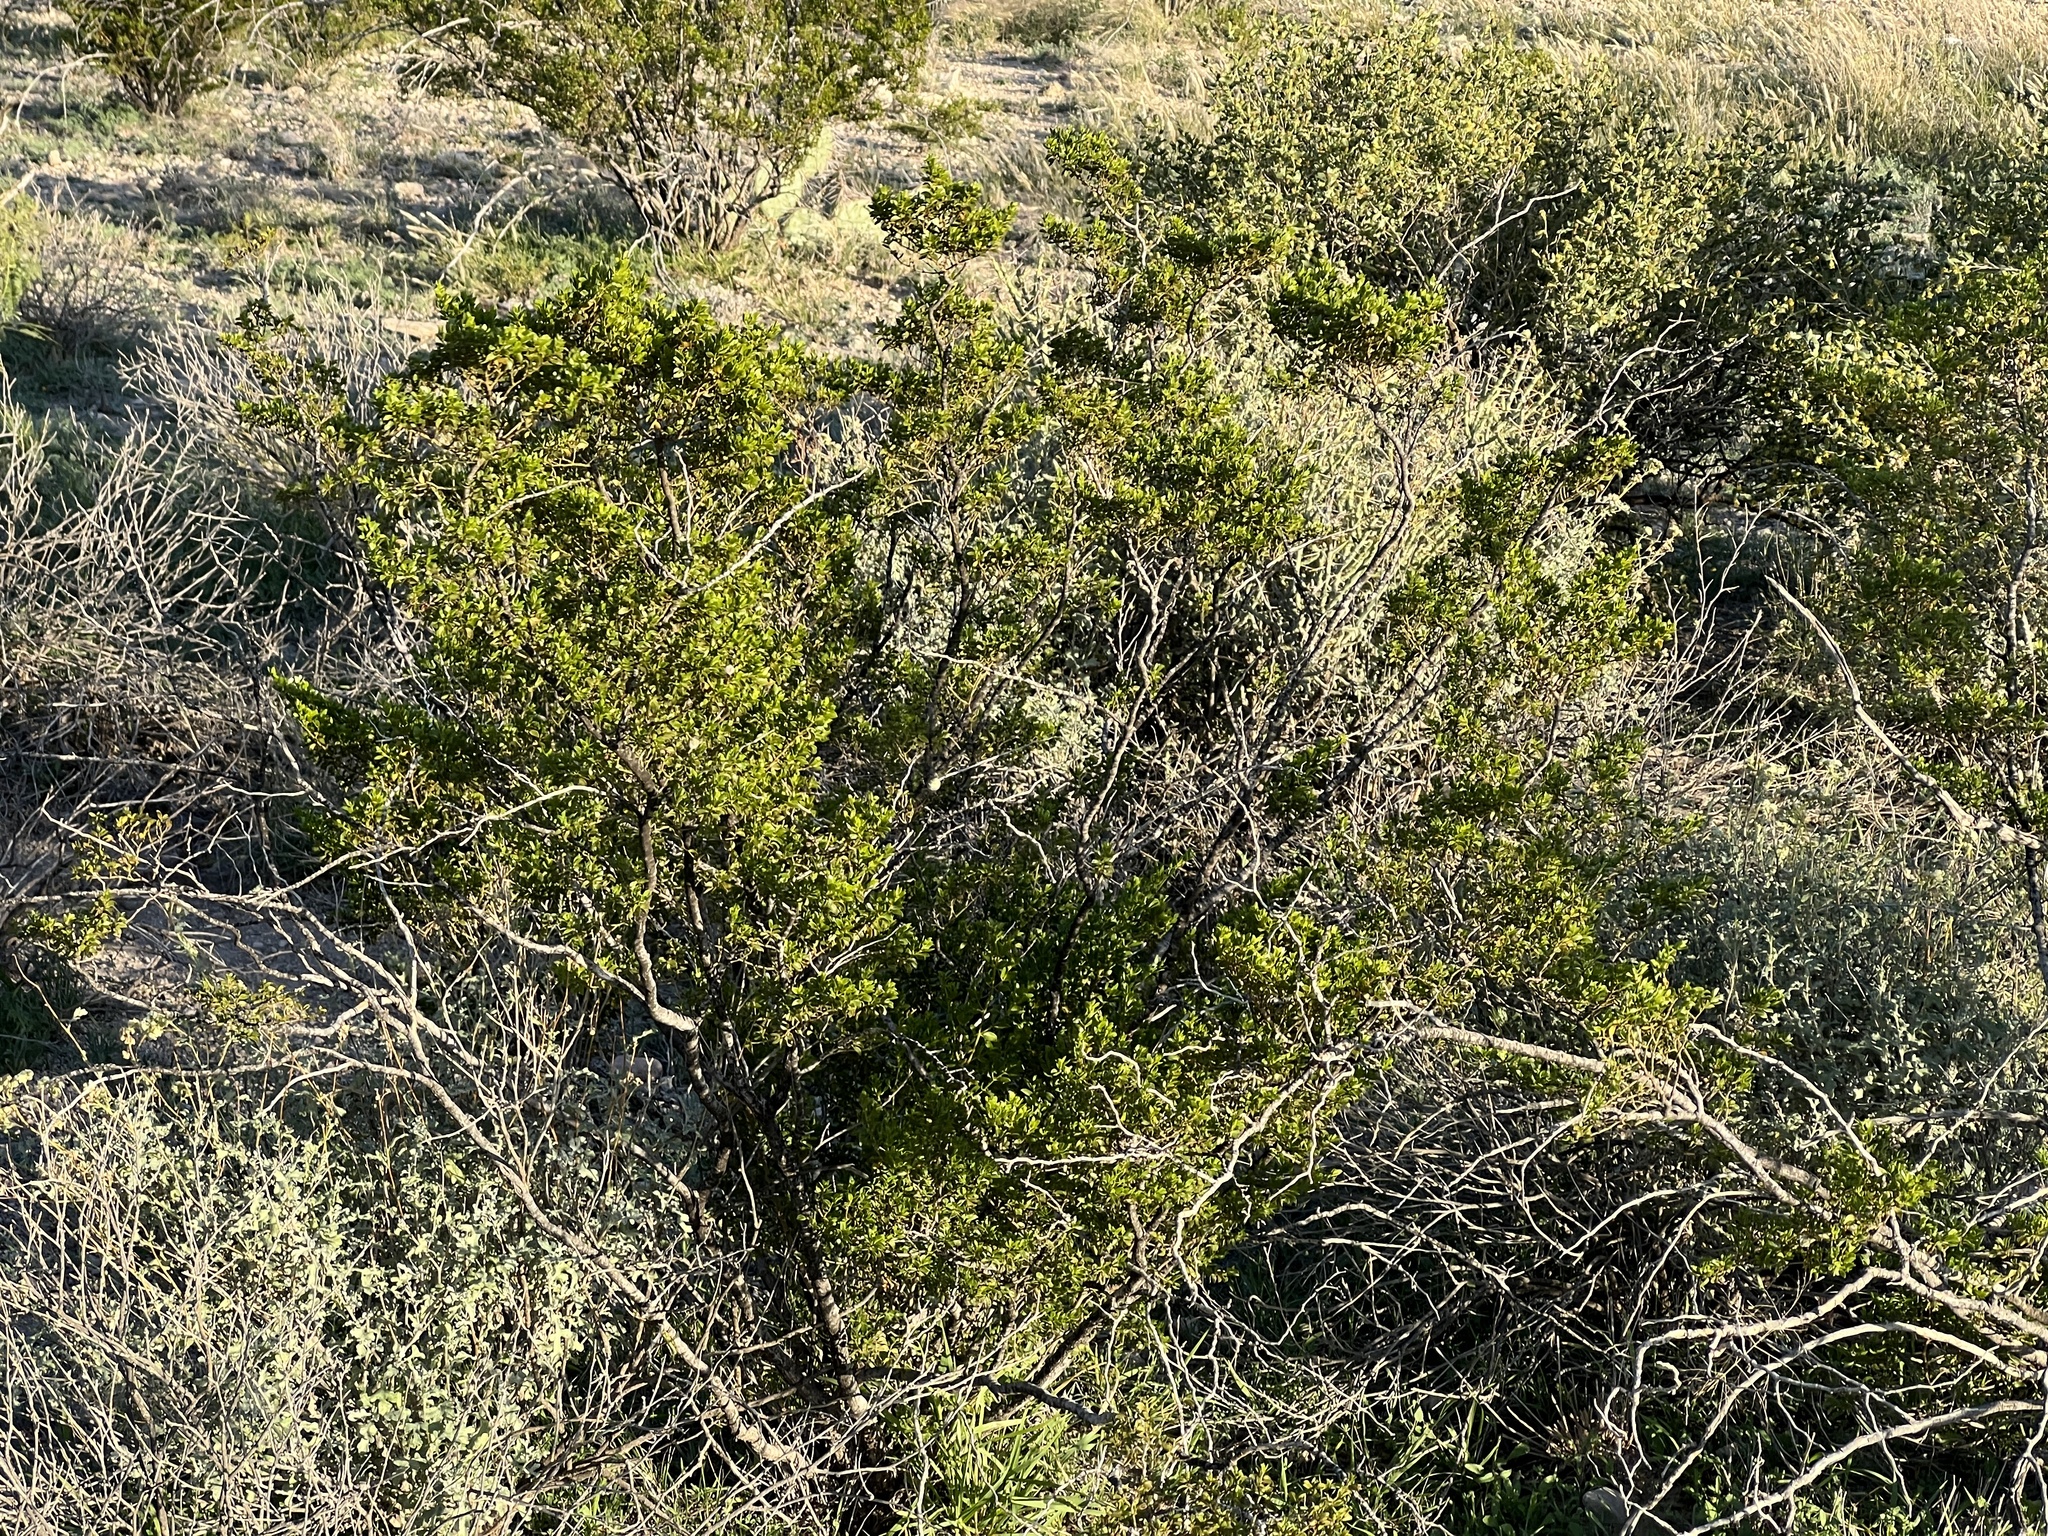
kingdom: Plantae
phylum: Tracheophyta
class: Magnoliopsida
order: Zygophyllales
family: Zygophyllaceae
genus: Larrea
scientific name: Larrea tridentata
